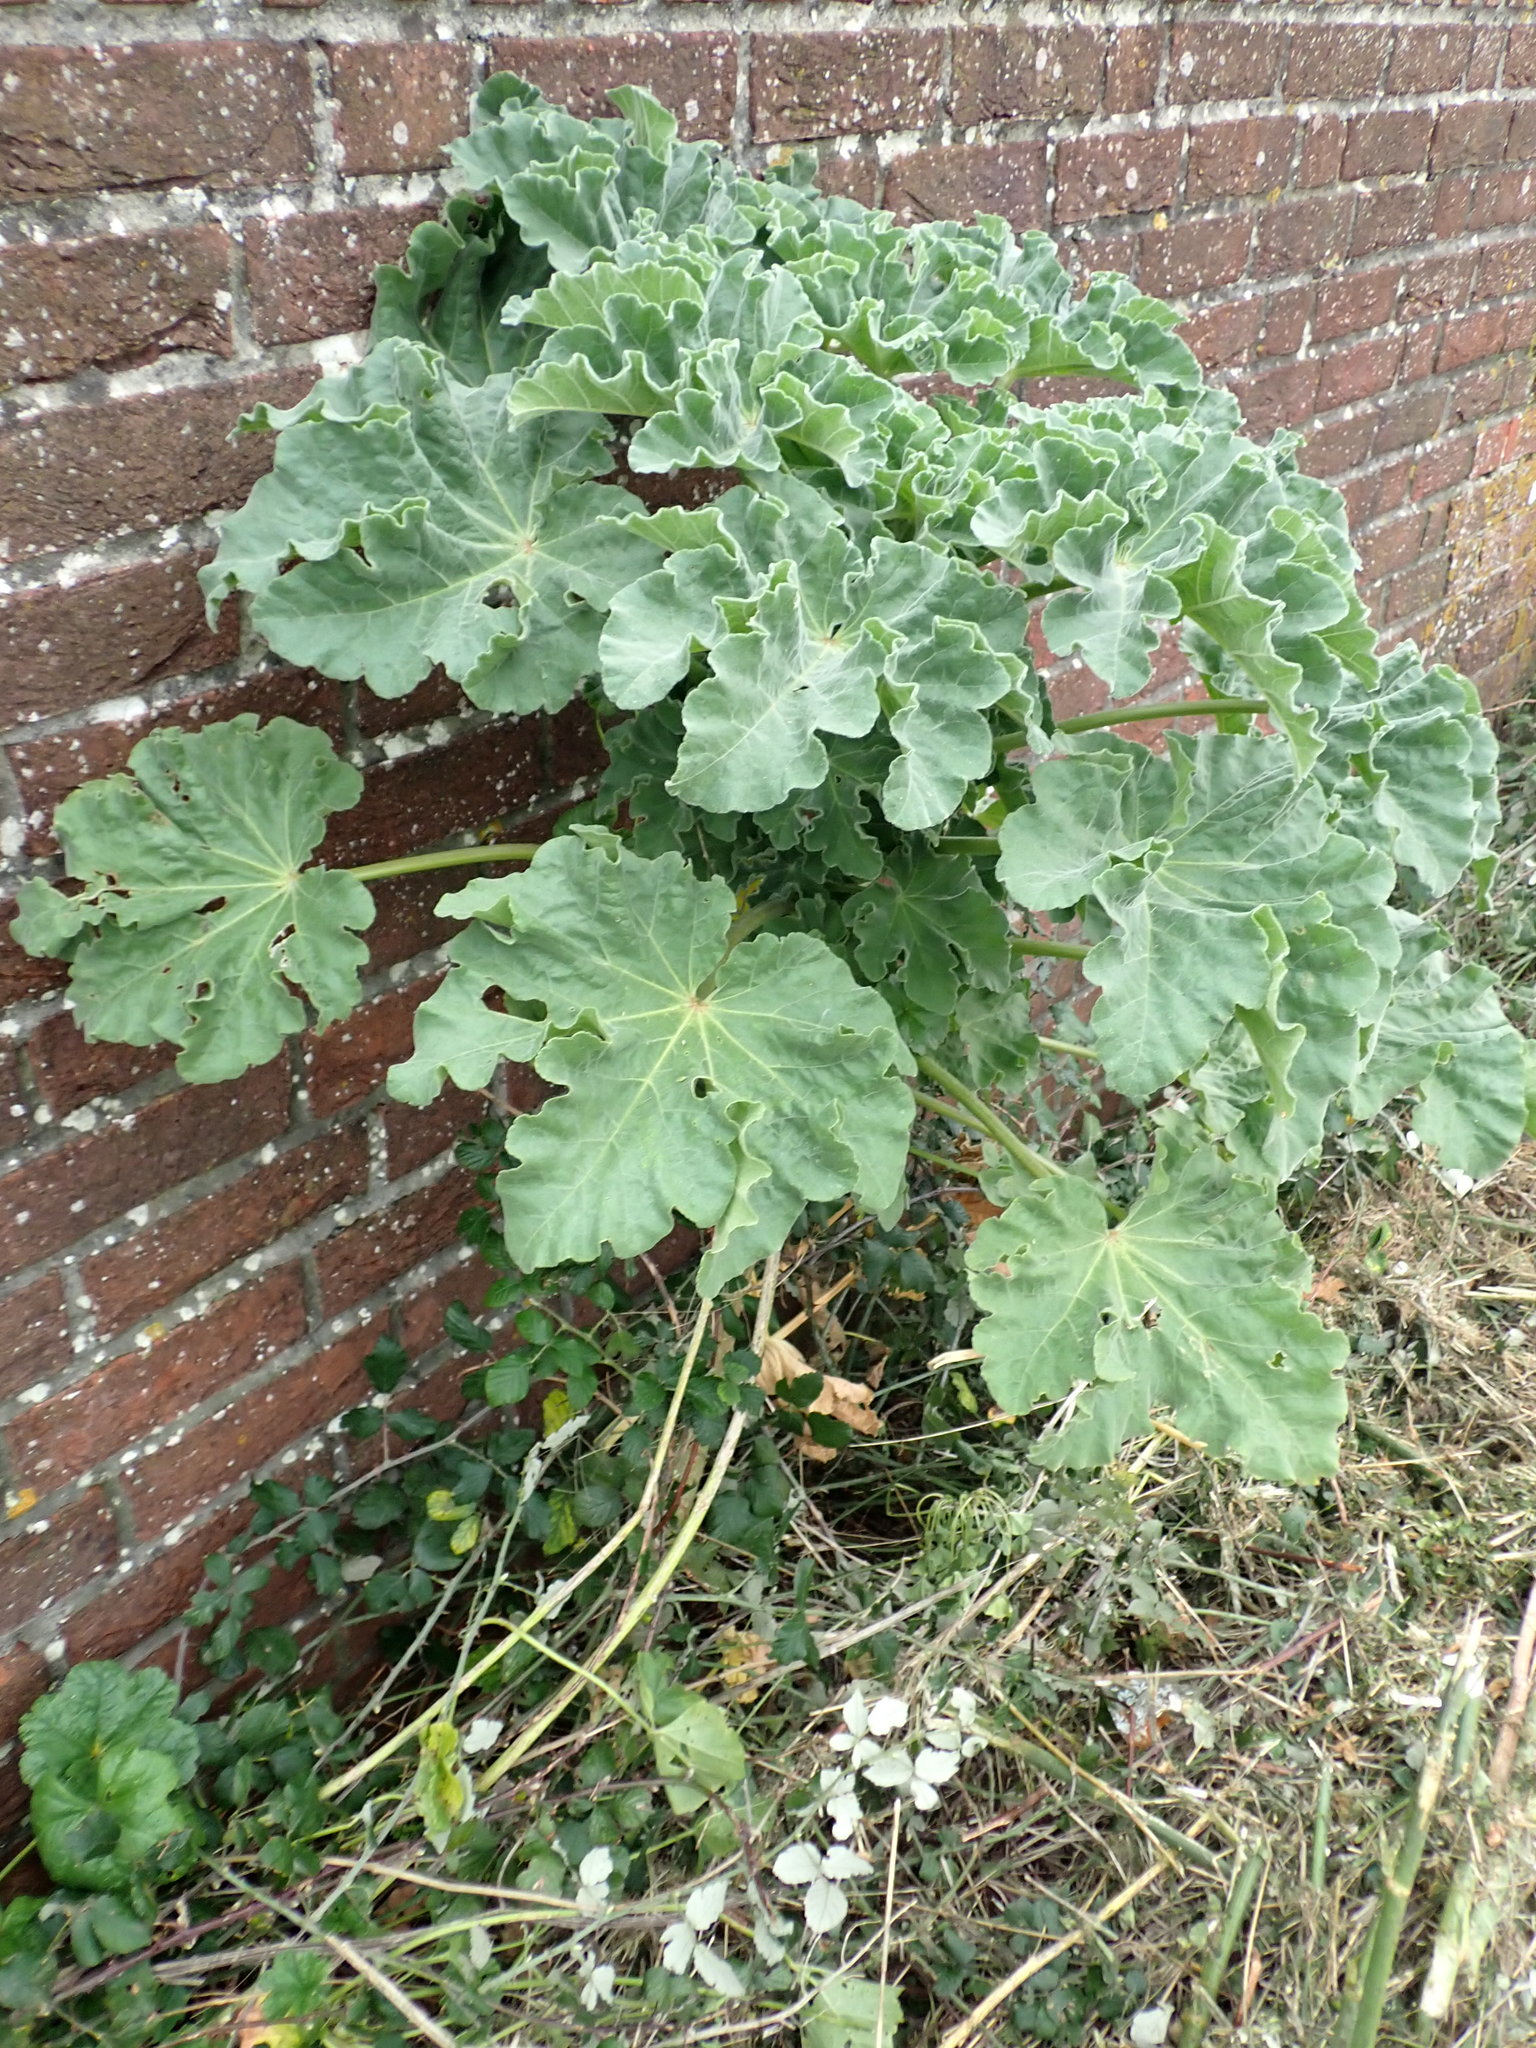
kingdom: Plantae
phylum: Tracheophyta
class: Magnoliopsida
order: Malvales
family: Malvaceae
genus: Malva
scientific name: Malva arborea
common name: Tree mallow
